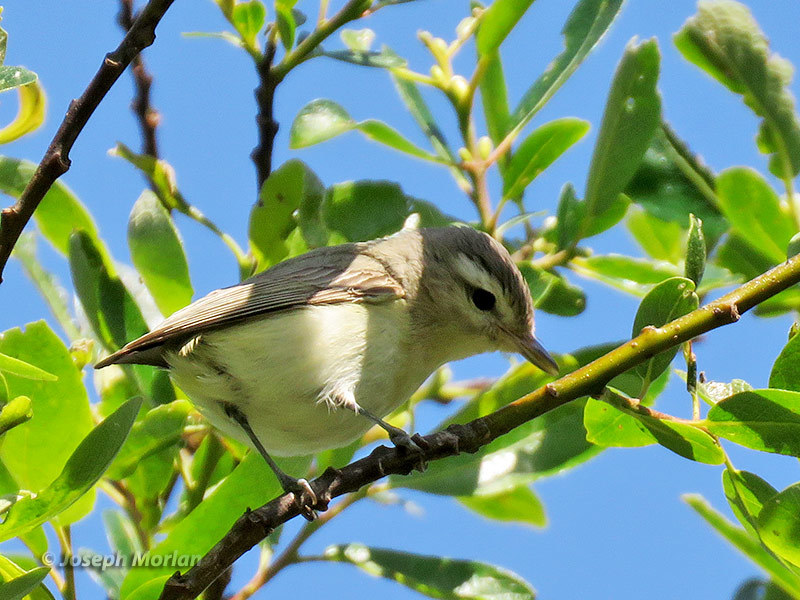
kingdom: Animalia
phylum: Chordata
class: Aves
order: Passeriformes
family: Vireonidae
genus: Vireo
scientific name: Vireo gilvus
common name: Warbling vireo
